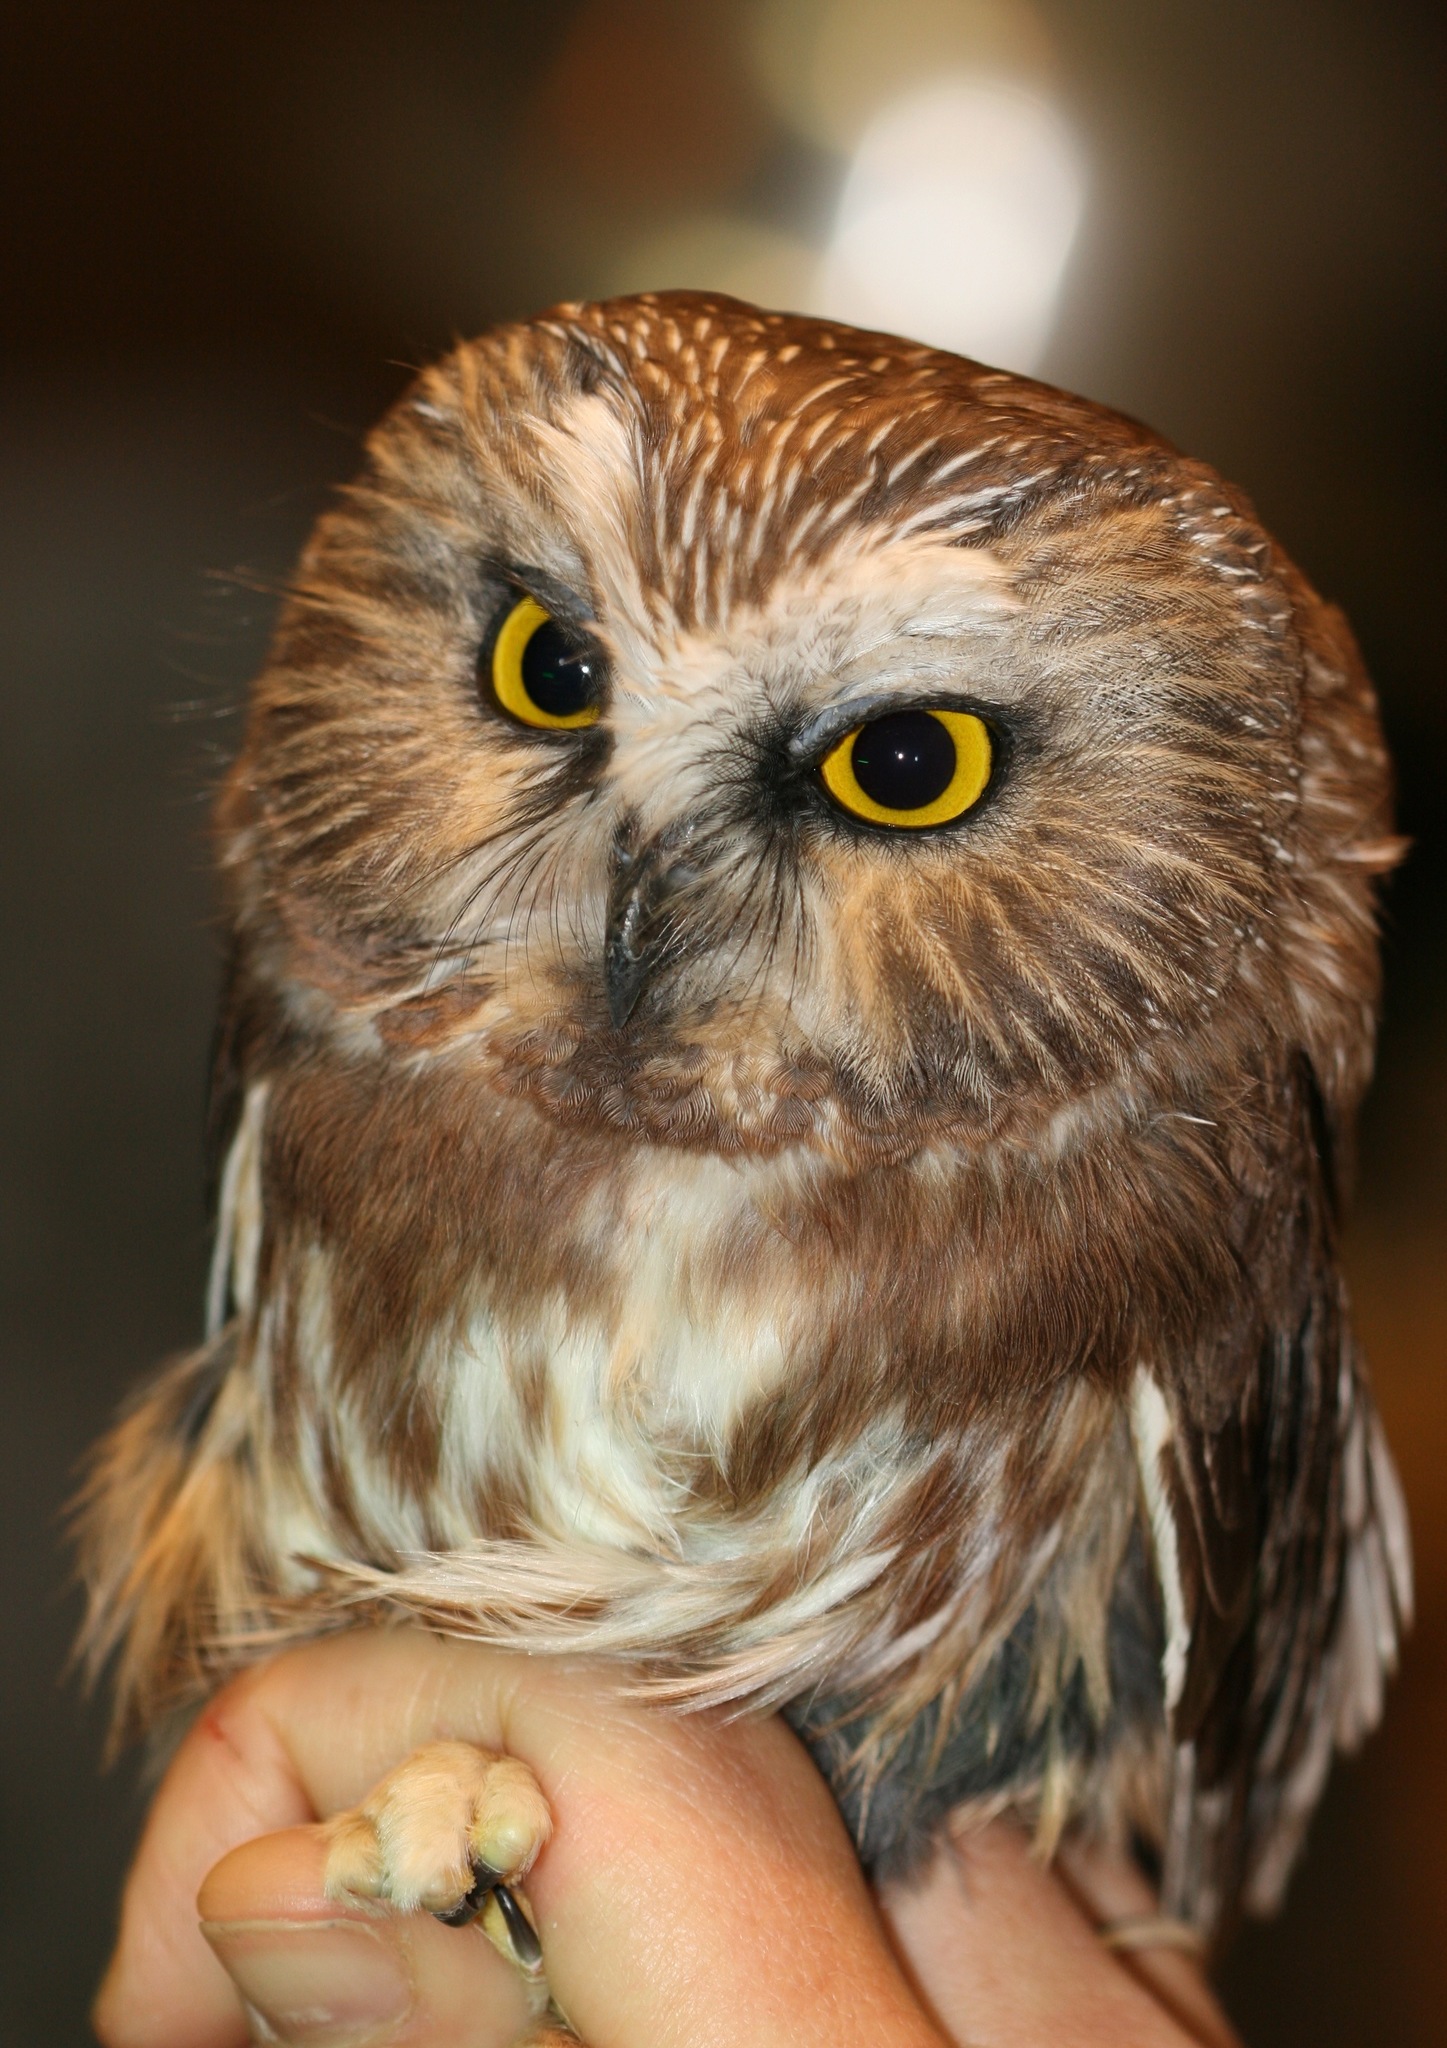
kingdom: Animalia
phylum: Chordata
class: Aves
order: Strigiformes
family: Strigidae
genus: Aegolius
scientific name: Aegolius acadicus
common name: Northern saw-whet owl
